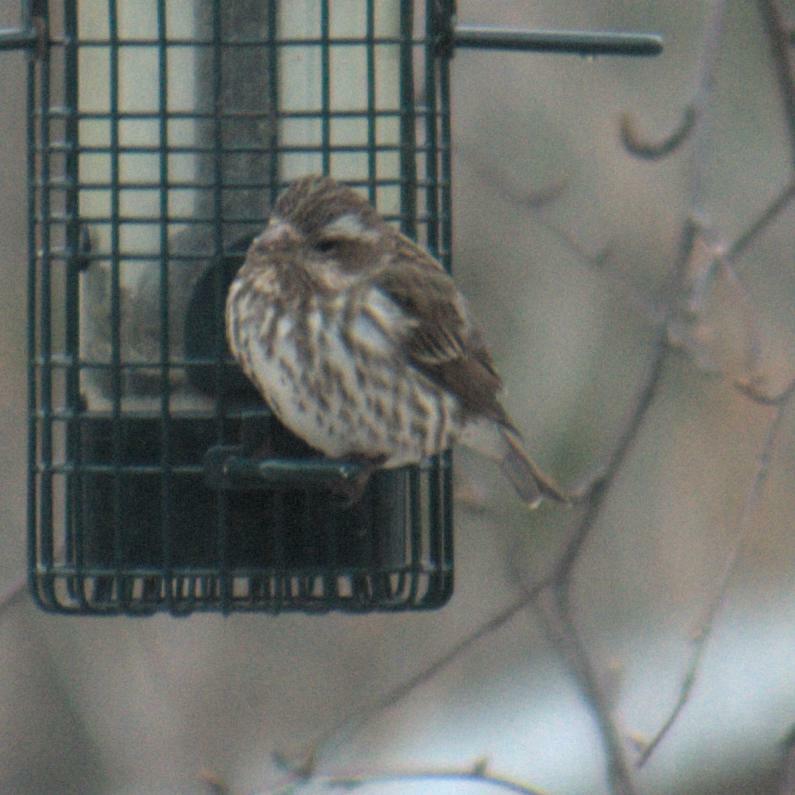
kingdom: Animalia
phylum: Chordata
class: Aves
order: Passeriformes
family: Fringillidae
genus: Haemorhous
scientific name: Haemorhous purpureus
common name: Purple finch
